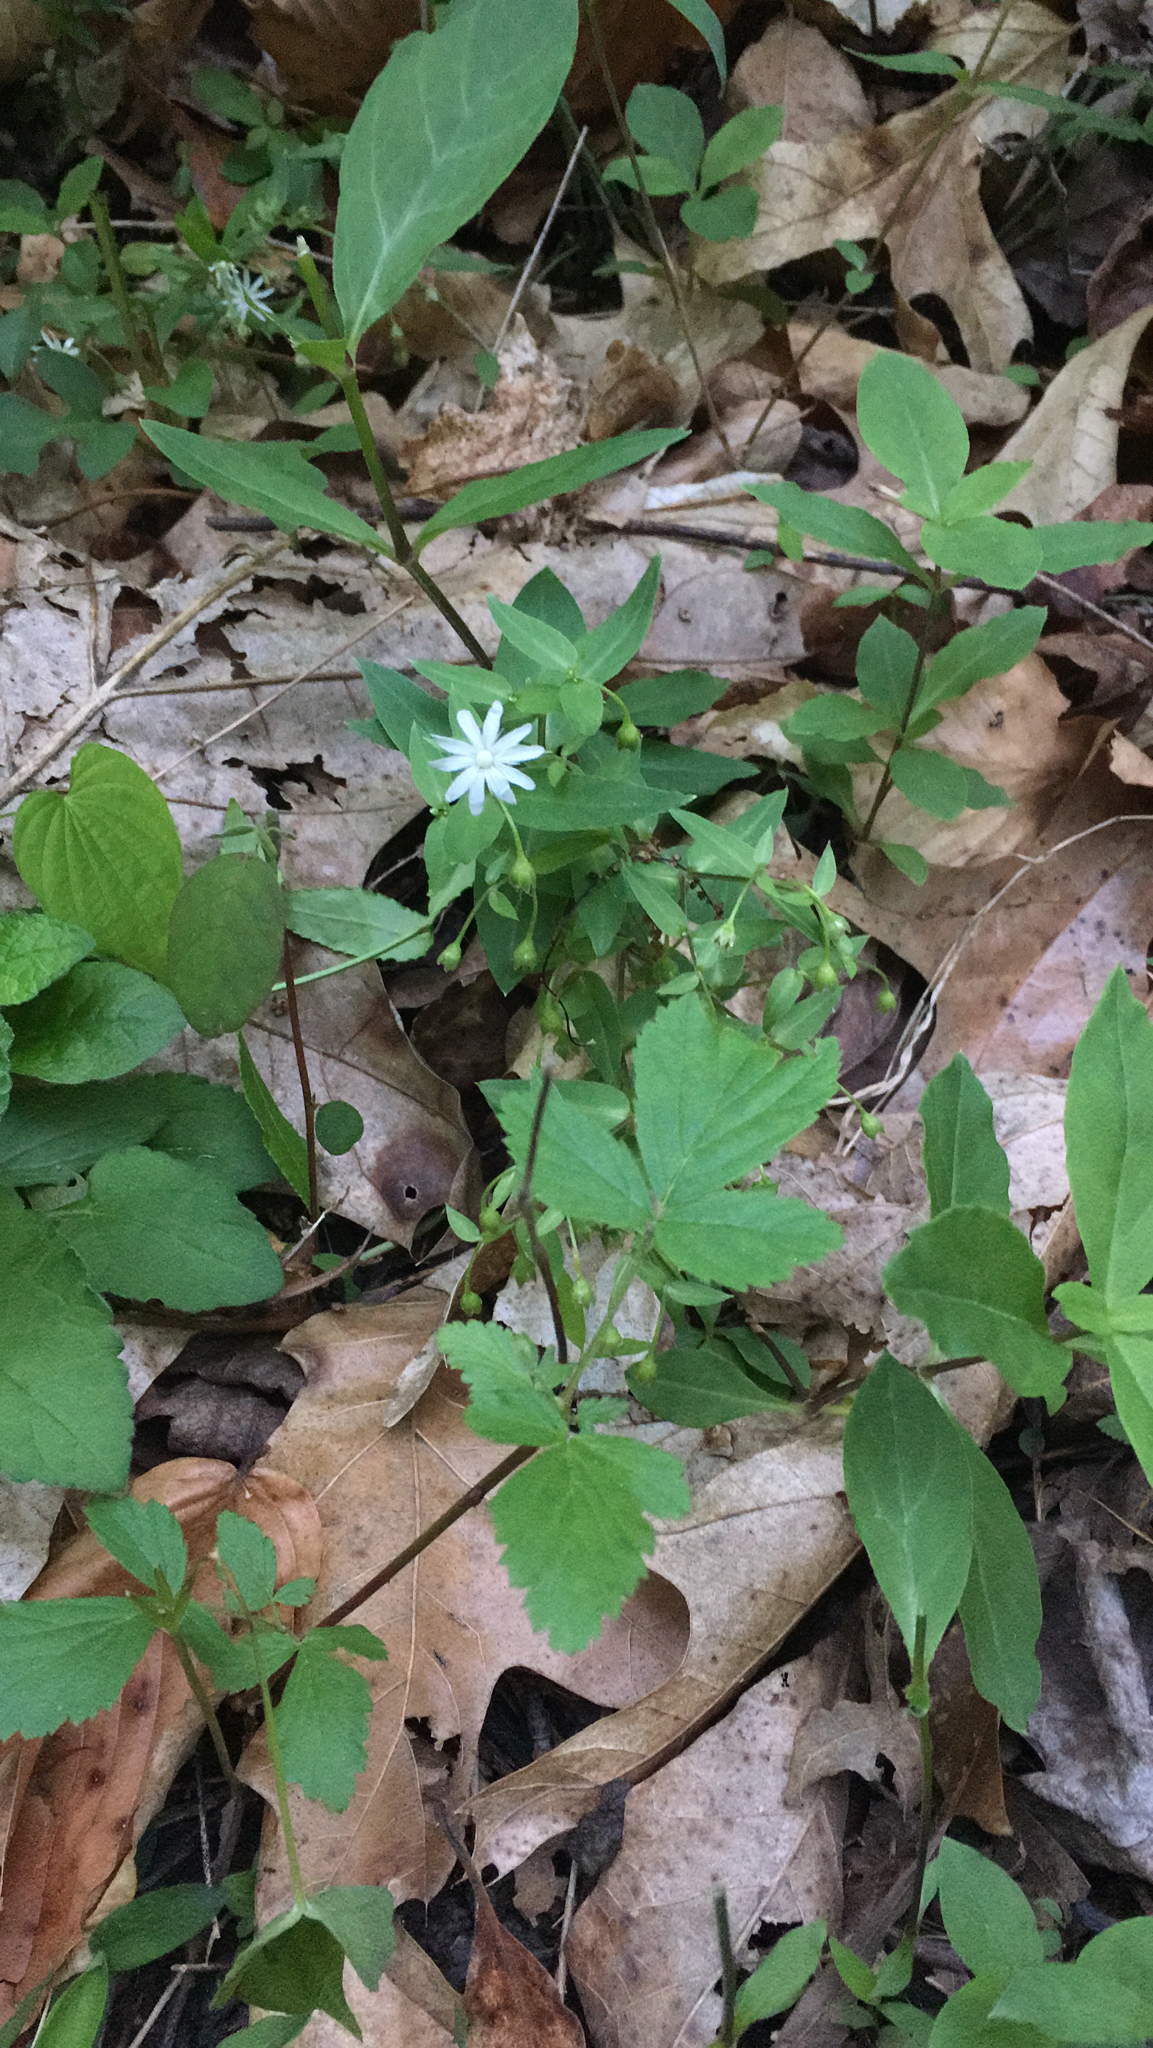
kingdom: Plantae
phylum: Tracheophyta
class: Magnoliopsida
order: Caryophyllales
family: Caryophyllaceae
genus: Stellaria
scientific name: Stellaria pubera
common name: Star chickweed
